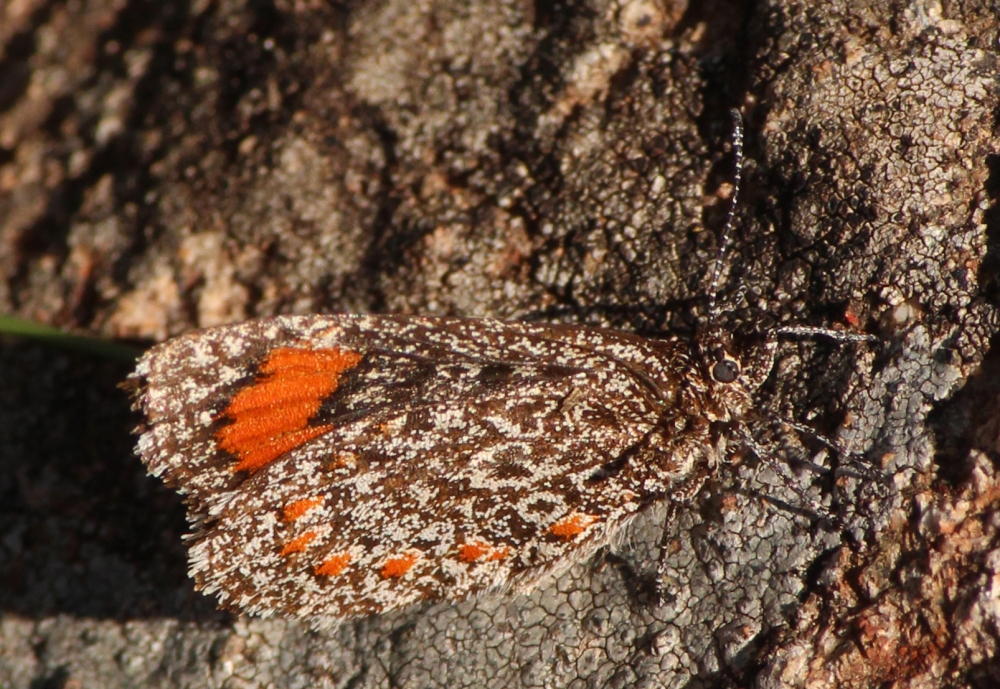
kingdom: Animalia
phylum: Arthropoda
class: Insecta
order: Lepidoptera
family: Lycaenidae
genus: Durbania
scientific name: Durbania amakosa
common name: Amakosa rocksitter
